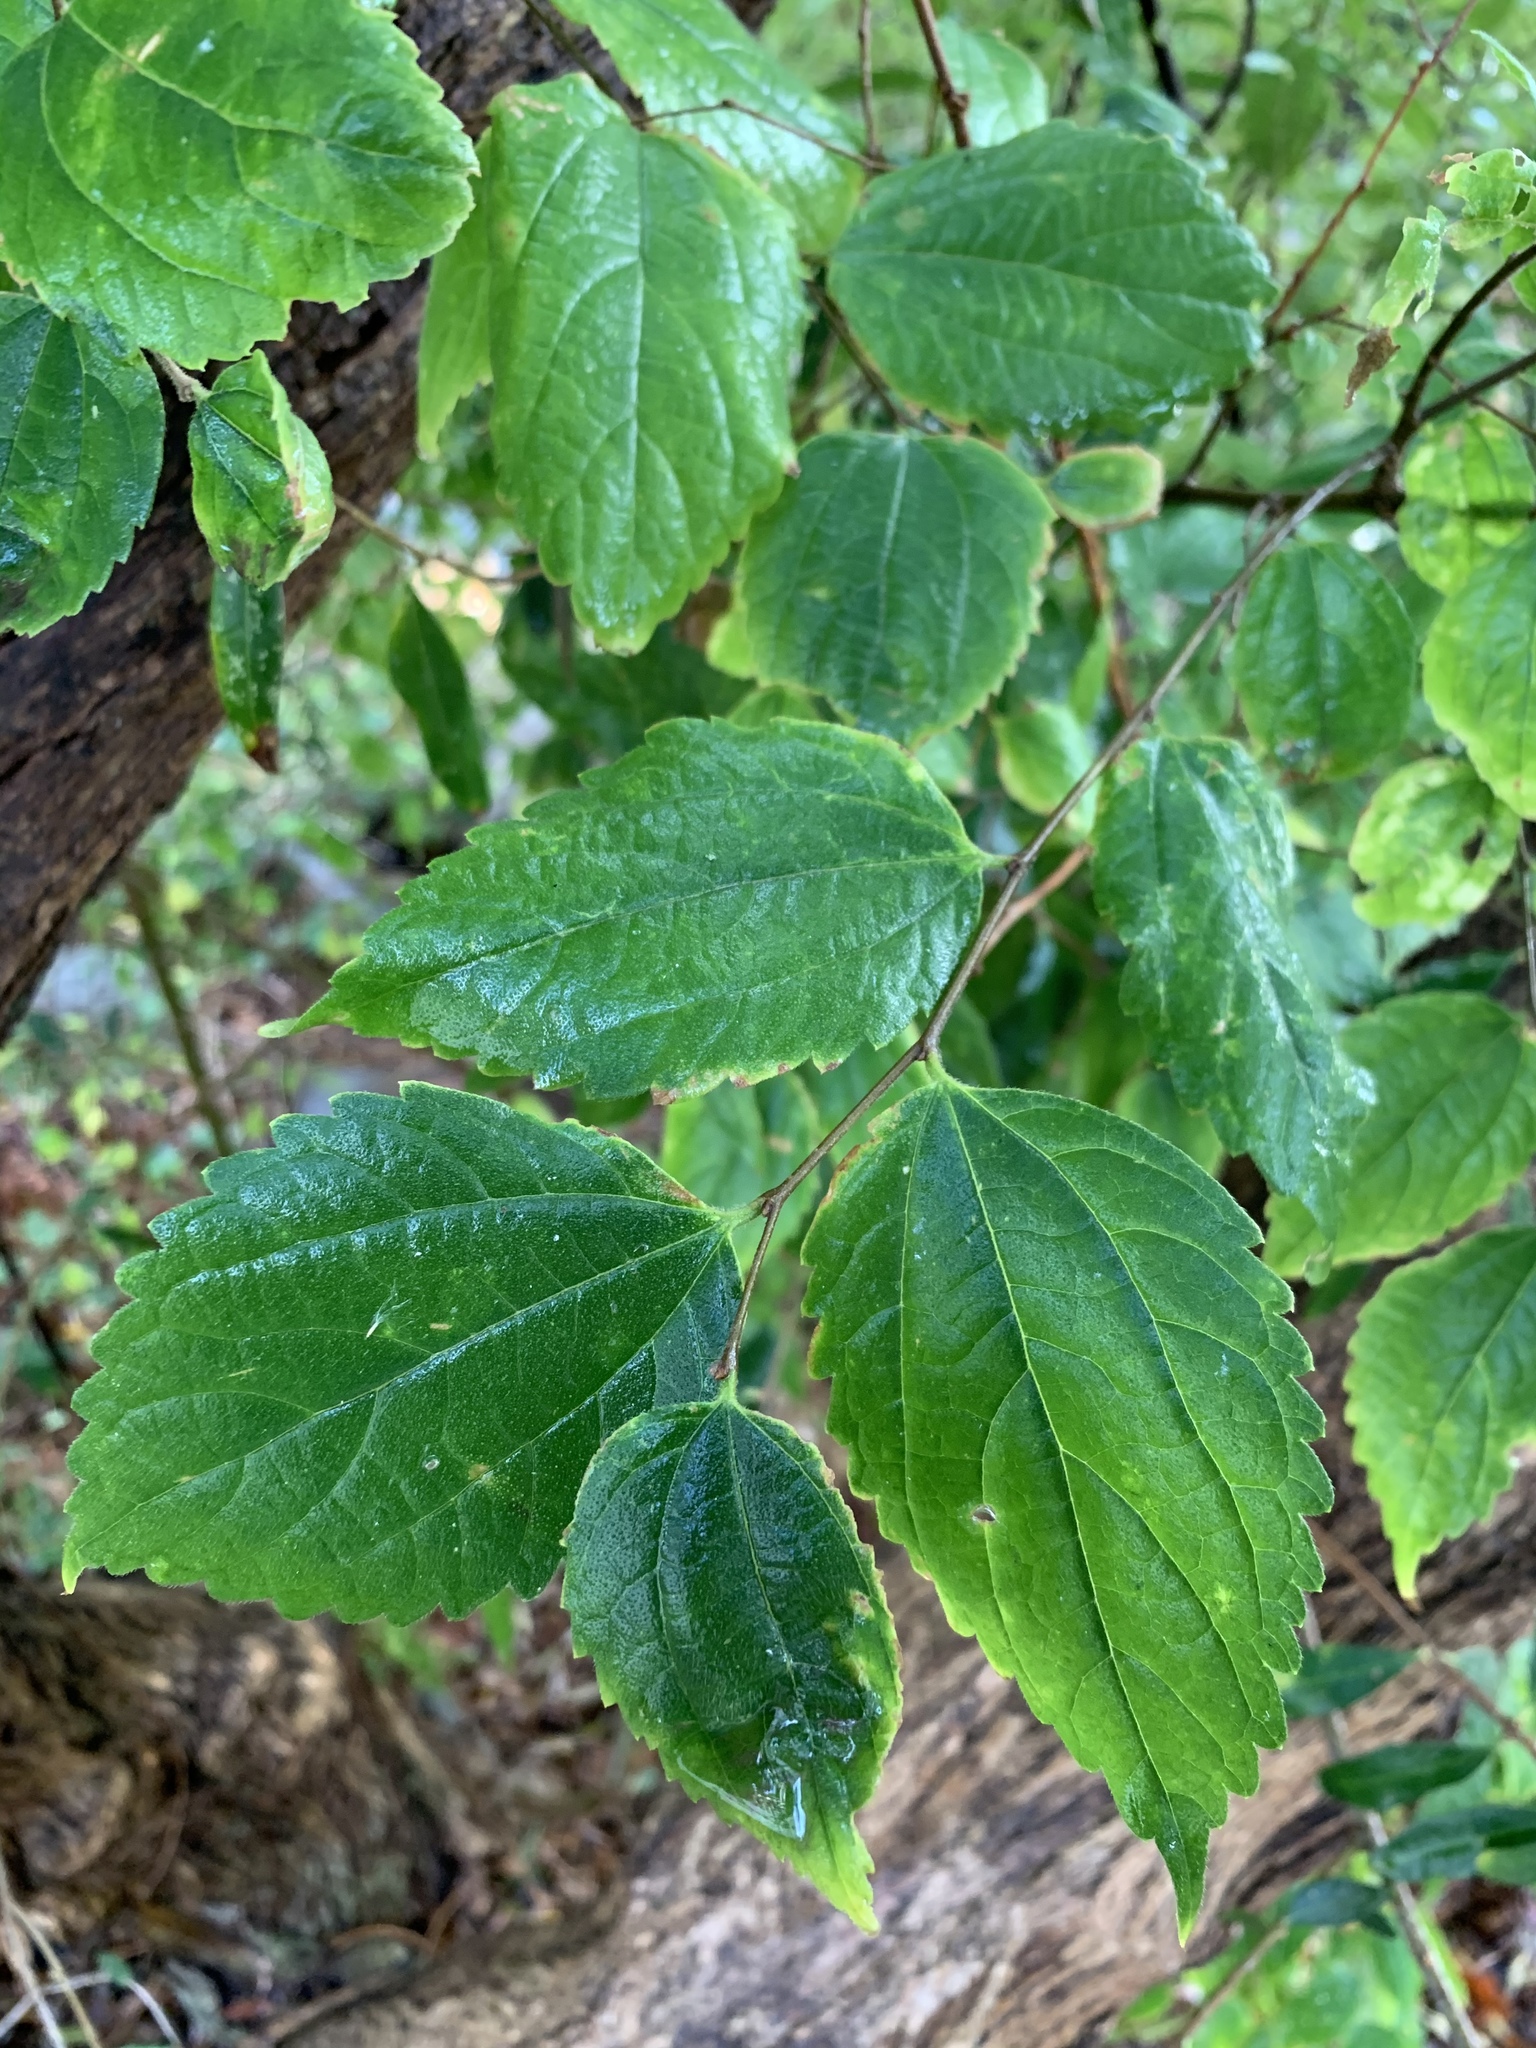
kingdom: Plantae
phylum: Tracheophyta
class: Magnoliopsida
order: Rosales
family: Cannabaceae
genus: Celtis
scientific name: Celtis africana
